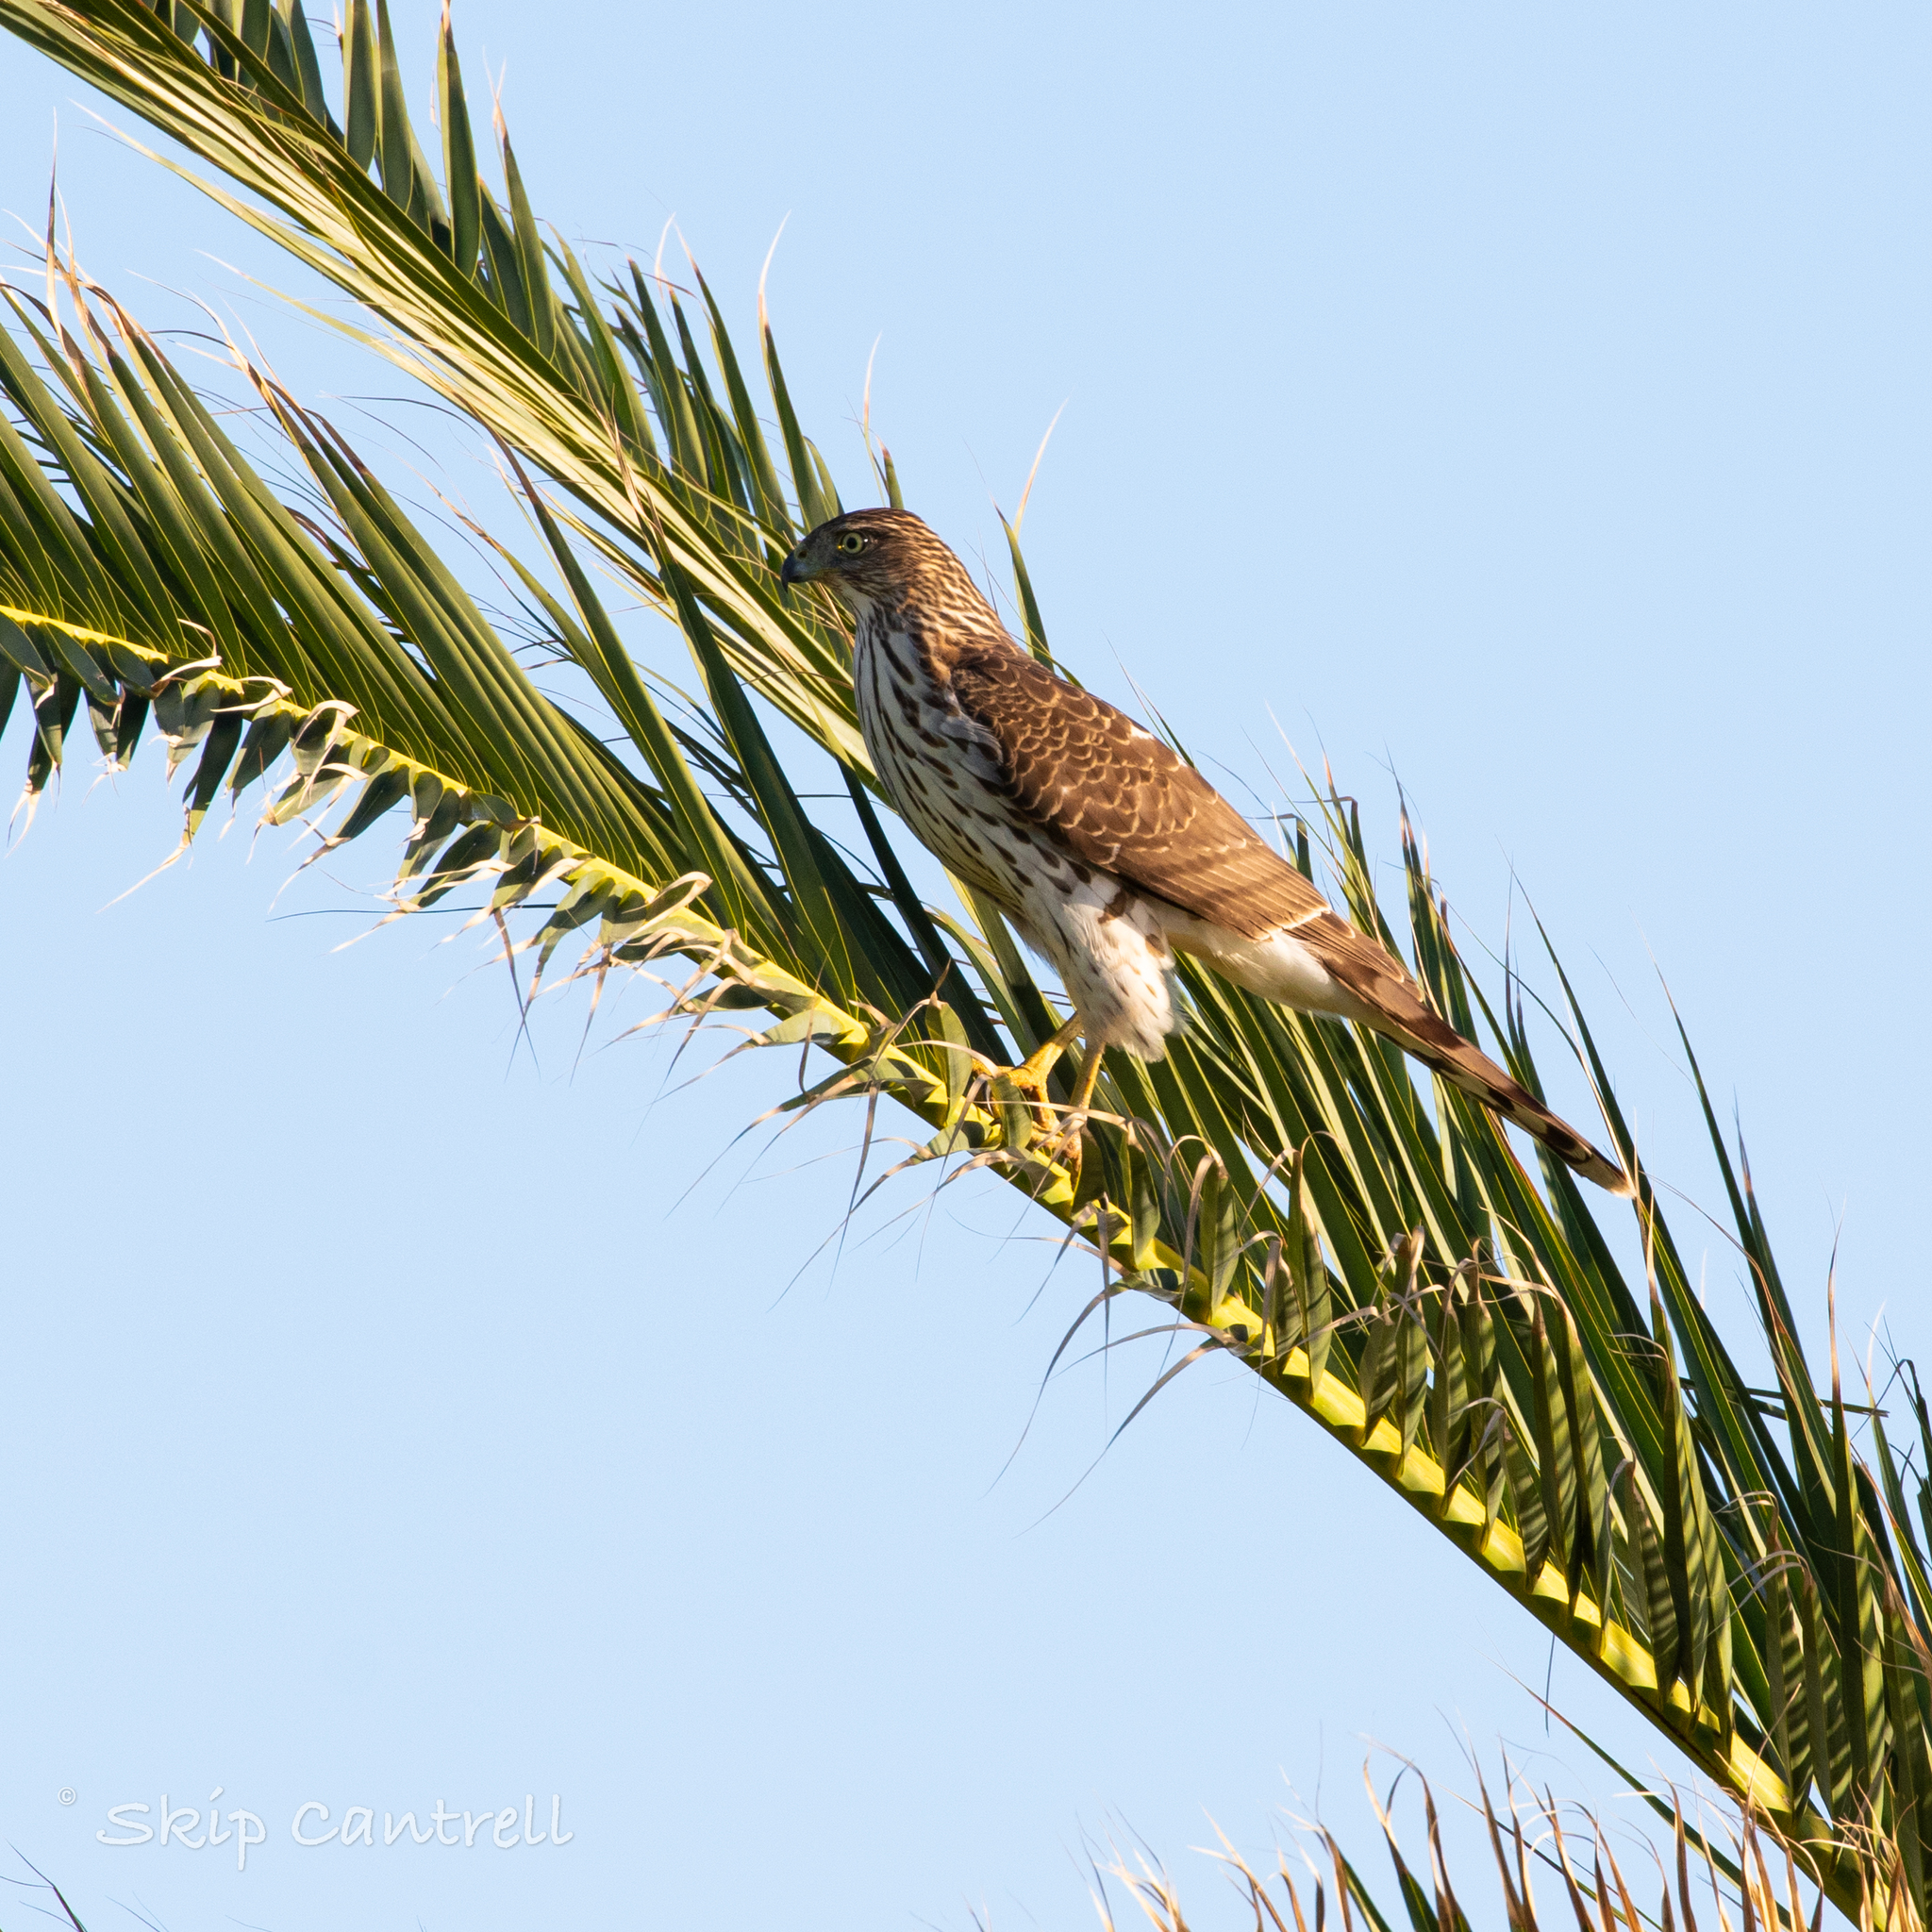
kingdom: Animalia
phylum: Chordata
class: Aves
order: Accipitriformes
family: Accipitridae
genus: Accipiter
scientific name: Accipiter cooperii
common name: Cooper's hawk
